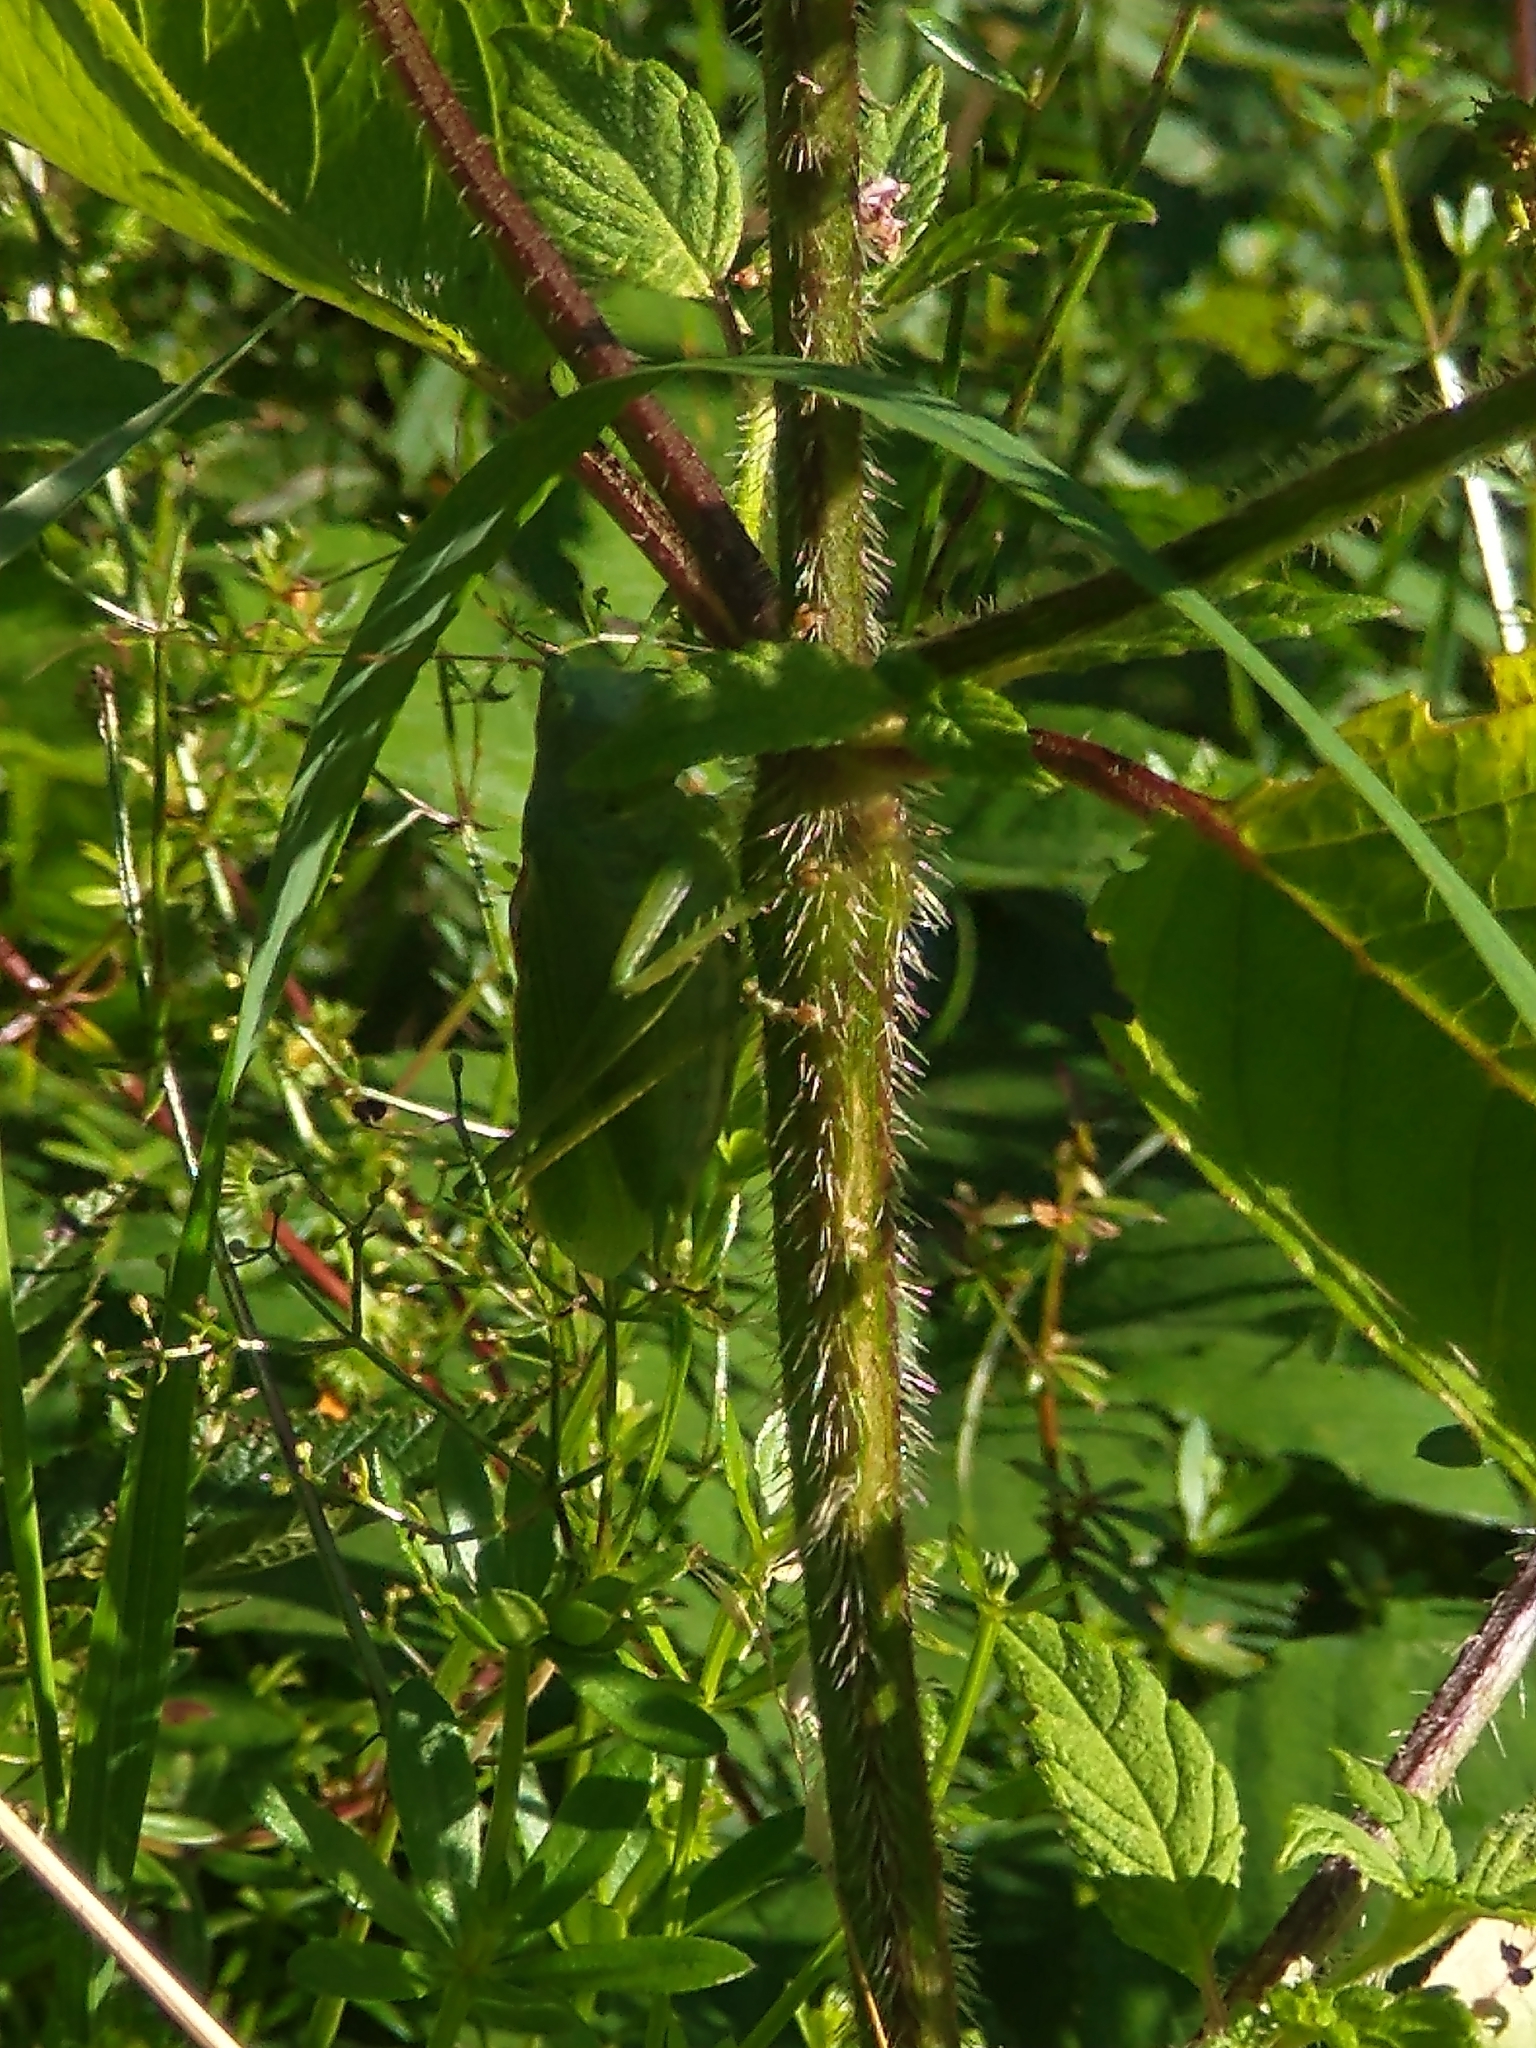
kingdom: Animalia
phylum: Arthropoda
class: Insecta
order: Orthoptera
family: Tettigoniidae
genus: Tettigonia
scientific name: Tettigonia cantans
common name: Upland green bush-cricket
